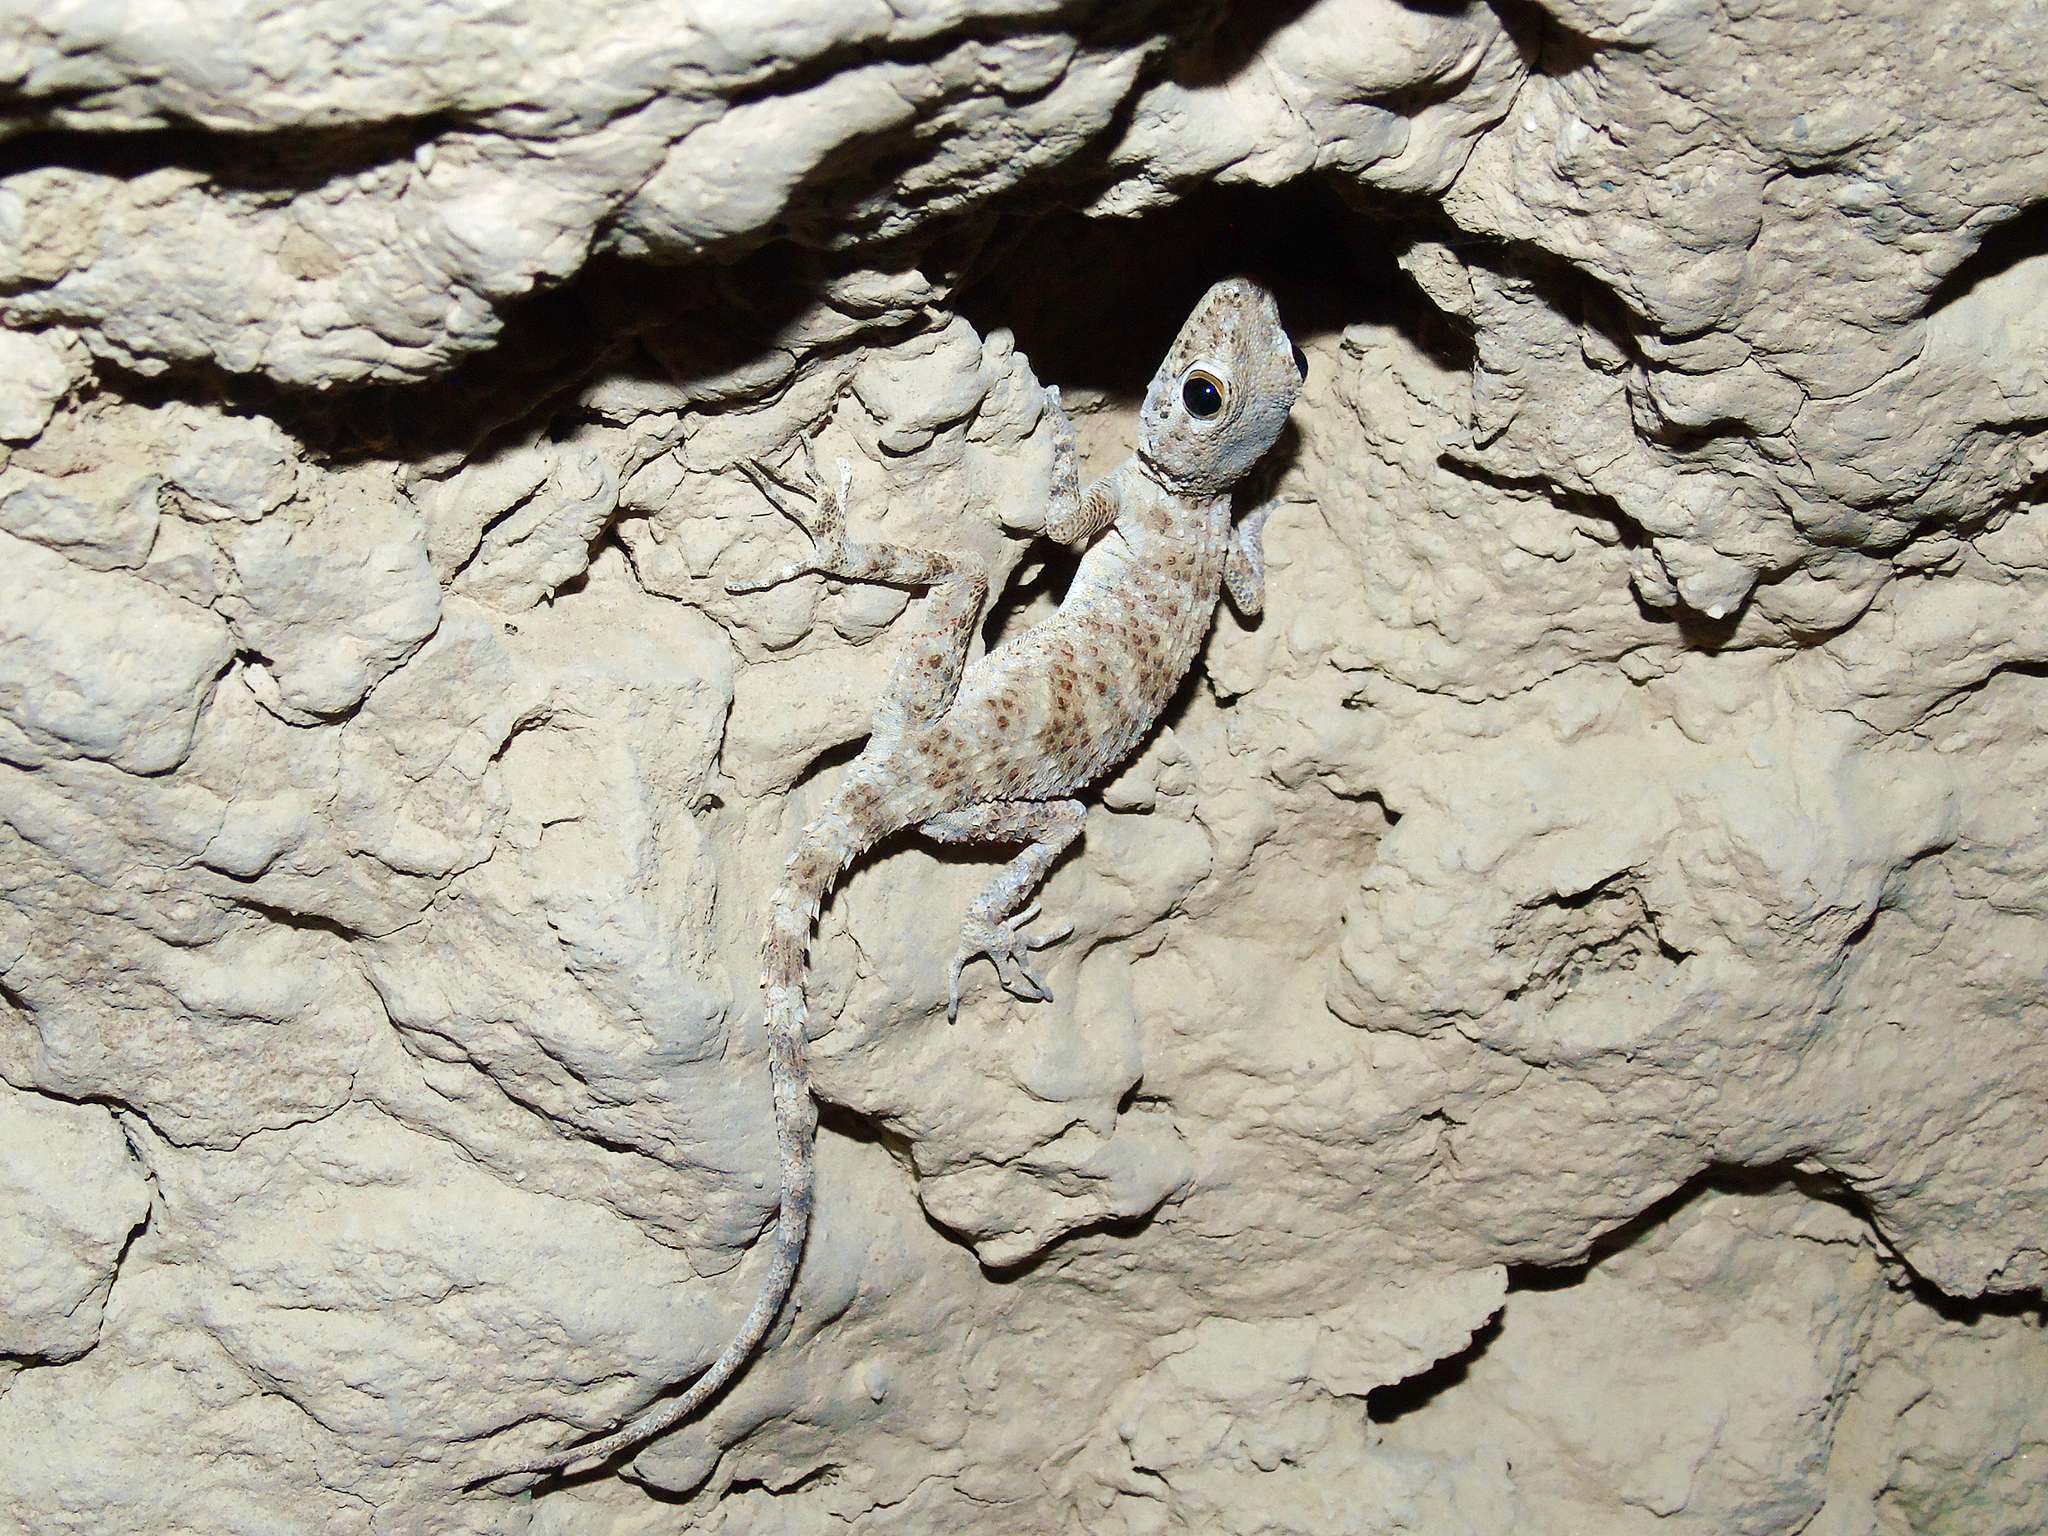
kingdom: Animalia
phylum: Chordata
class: Squamata
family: Gekkonidae
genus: Tenuidactylus
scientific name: Tenuidactylus bogdanovi
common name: Bogdanov’s thin-toed gecko
